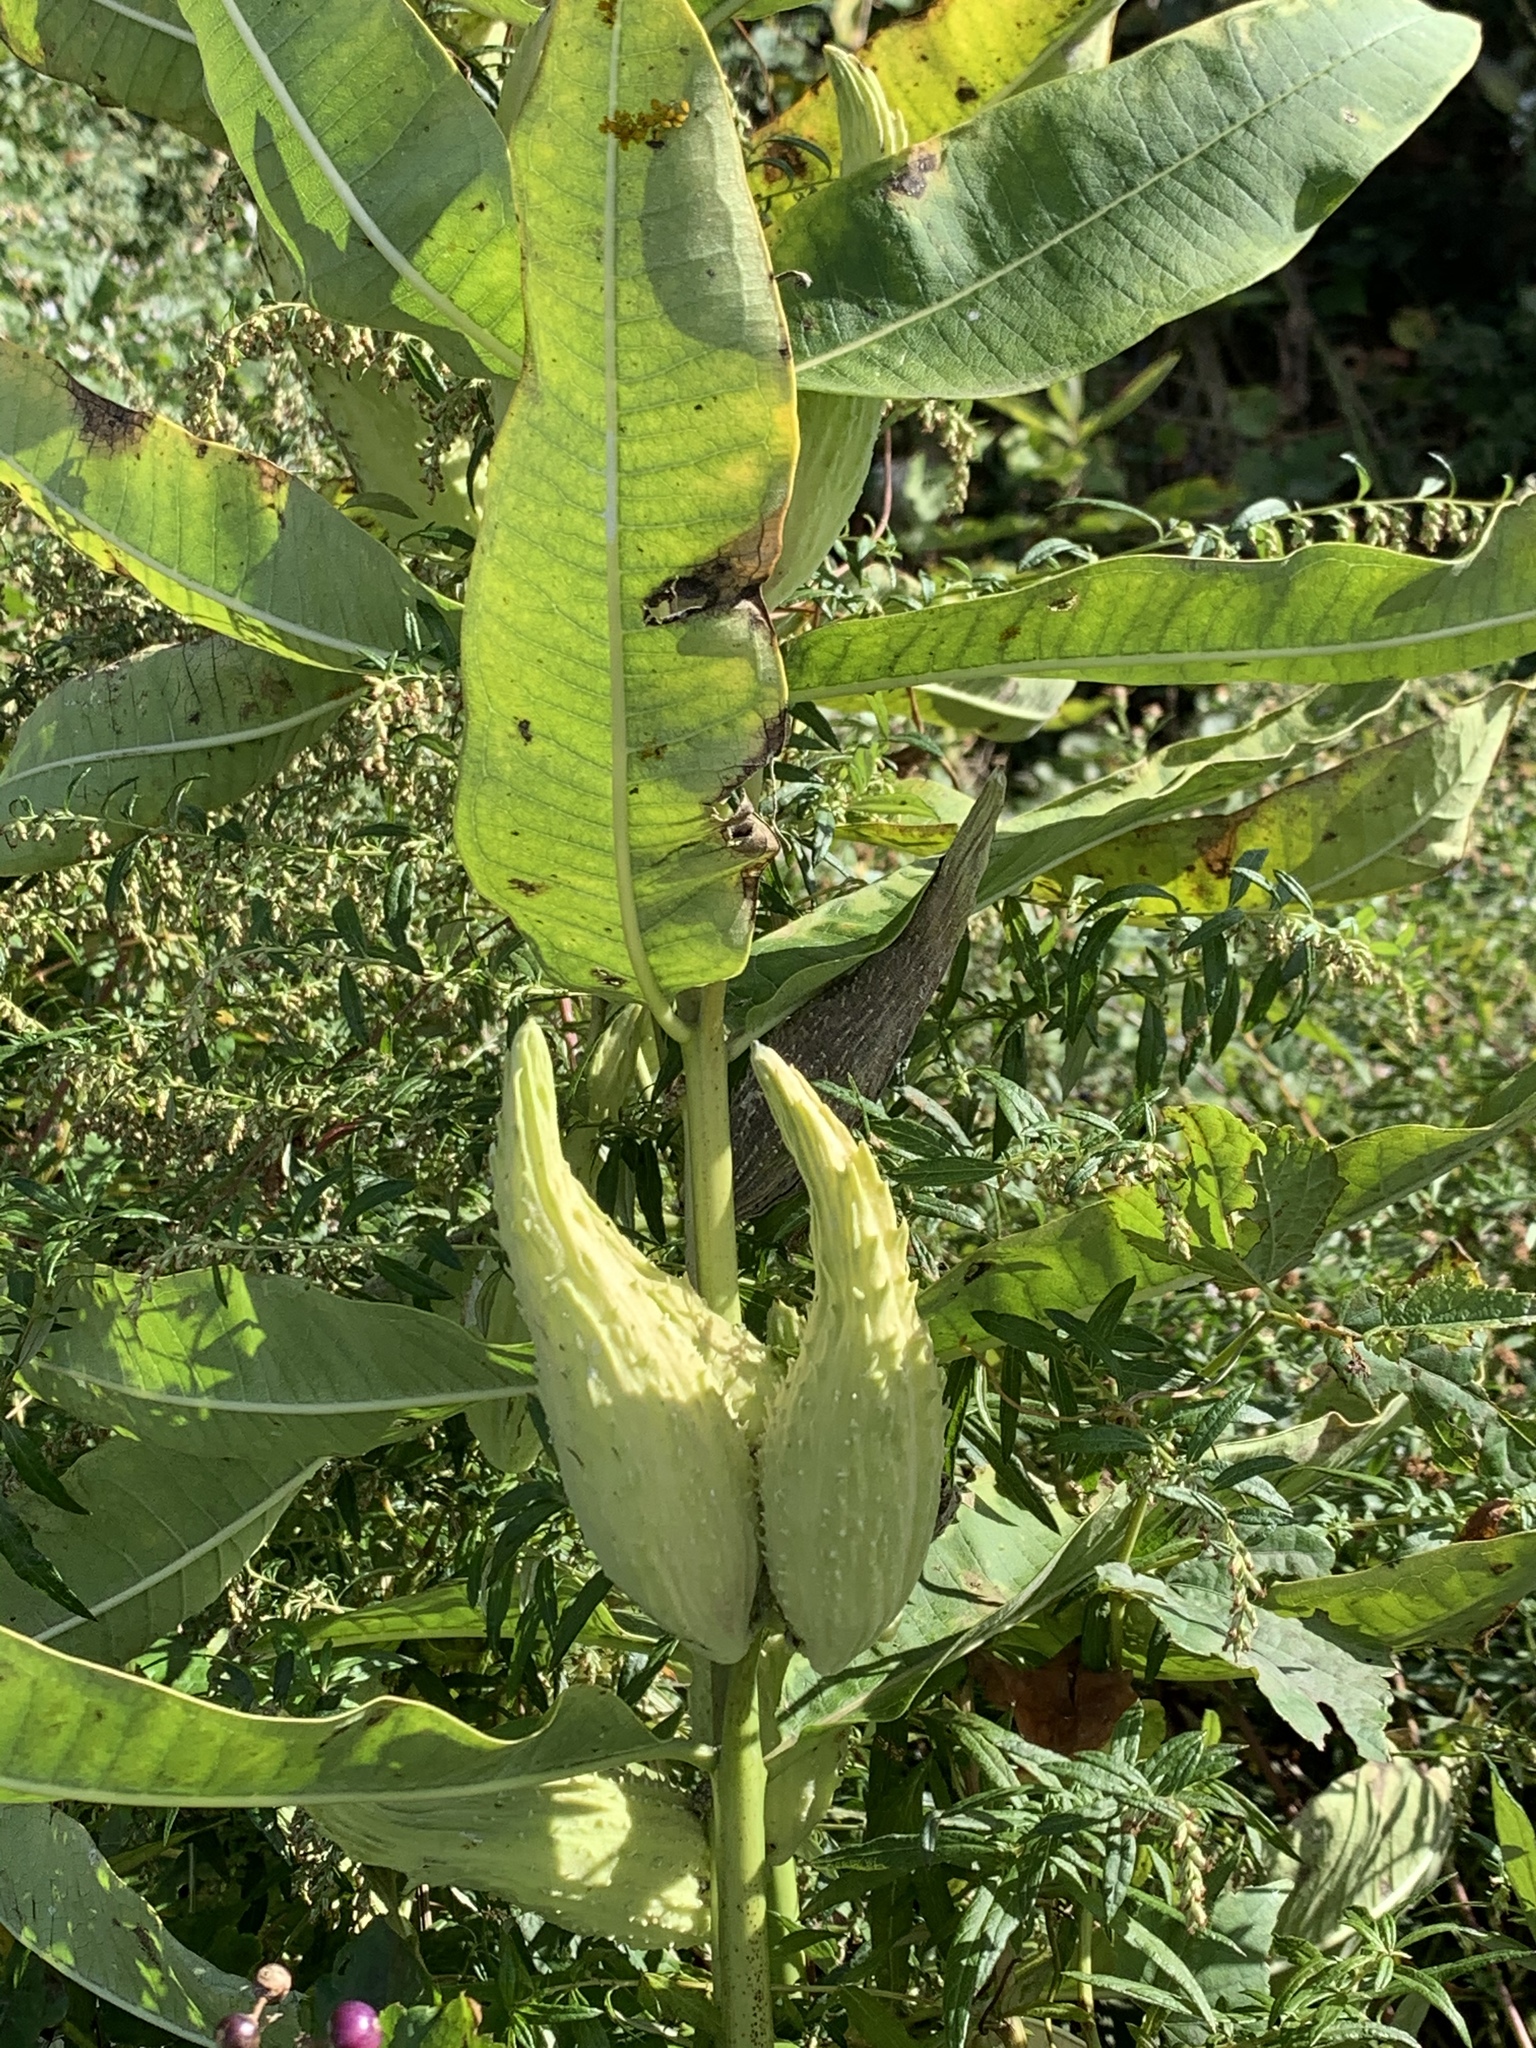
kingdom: Plantae
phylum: Tracheophyta
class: Magnoliopsida
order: Gentianales
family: Apocynaceae
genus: Asclepias
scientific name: Asclepias syriaca
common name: Common milkweed
